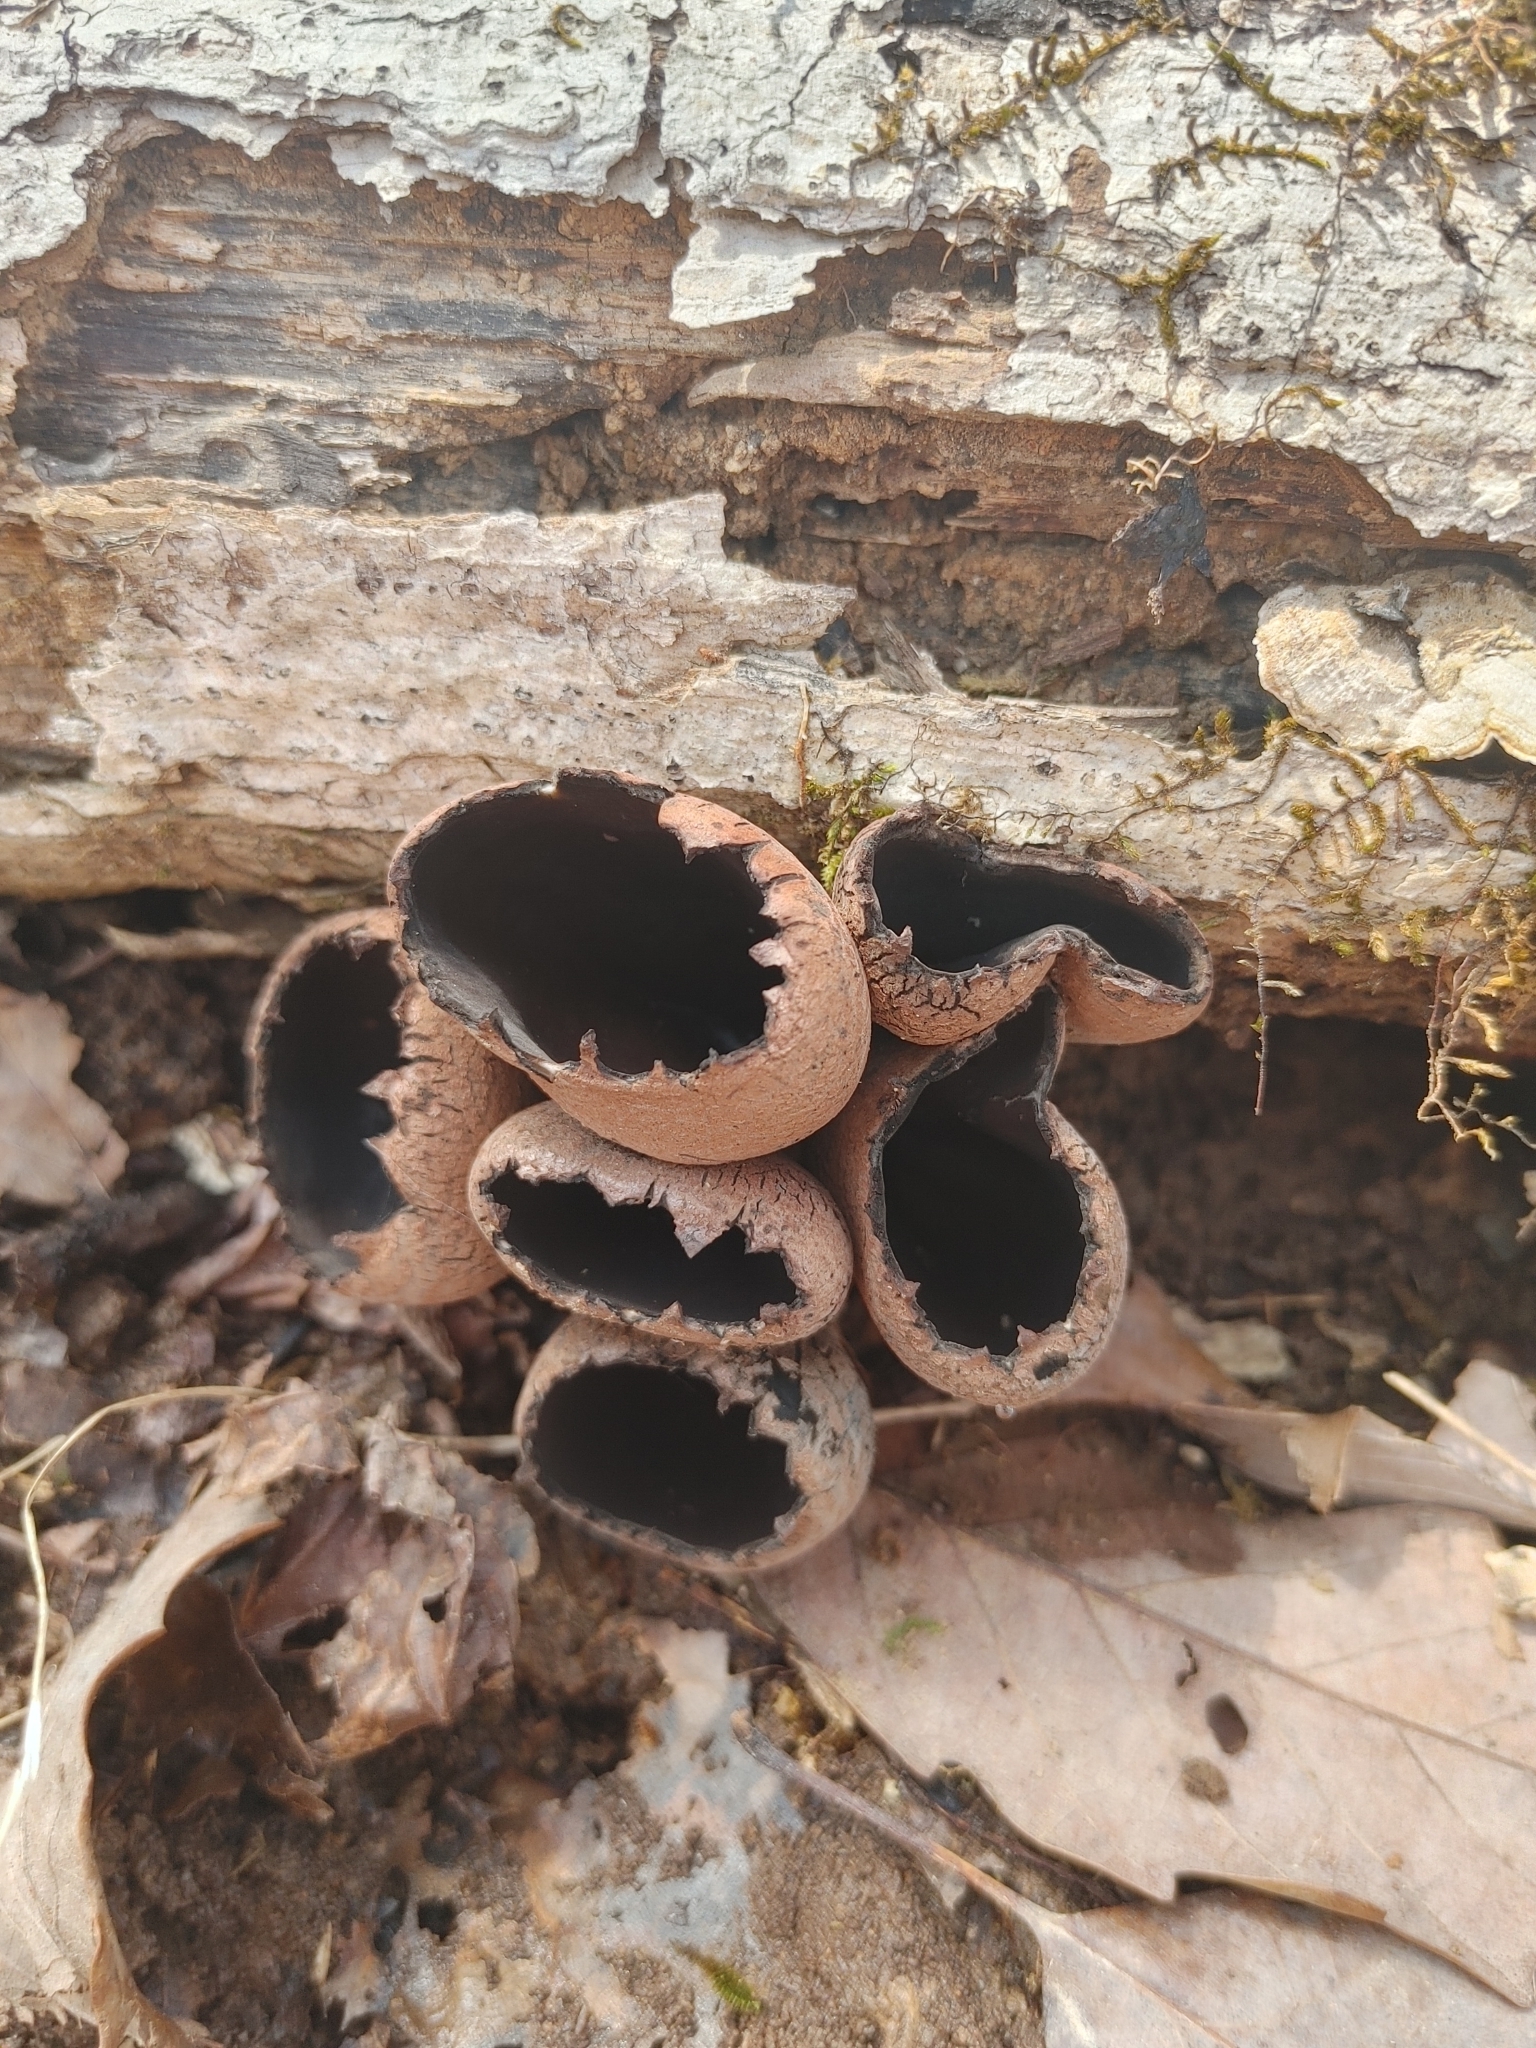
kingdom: Fungi
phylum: Ascomycota
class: Pezizomycetes
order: Pezizales
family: Sarcosomataceae
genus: Urnula
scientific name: Urnula craterium
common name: Devil's urn
